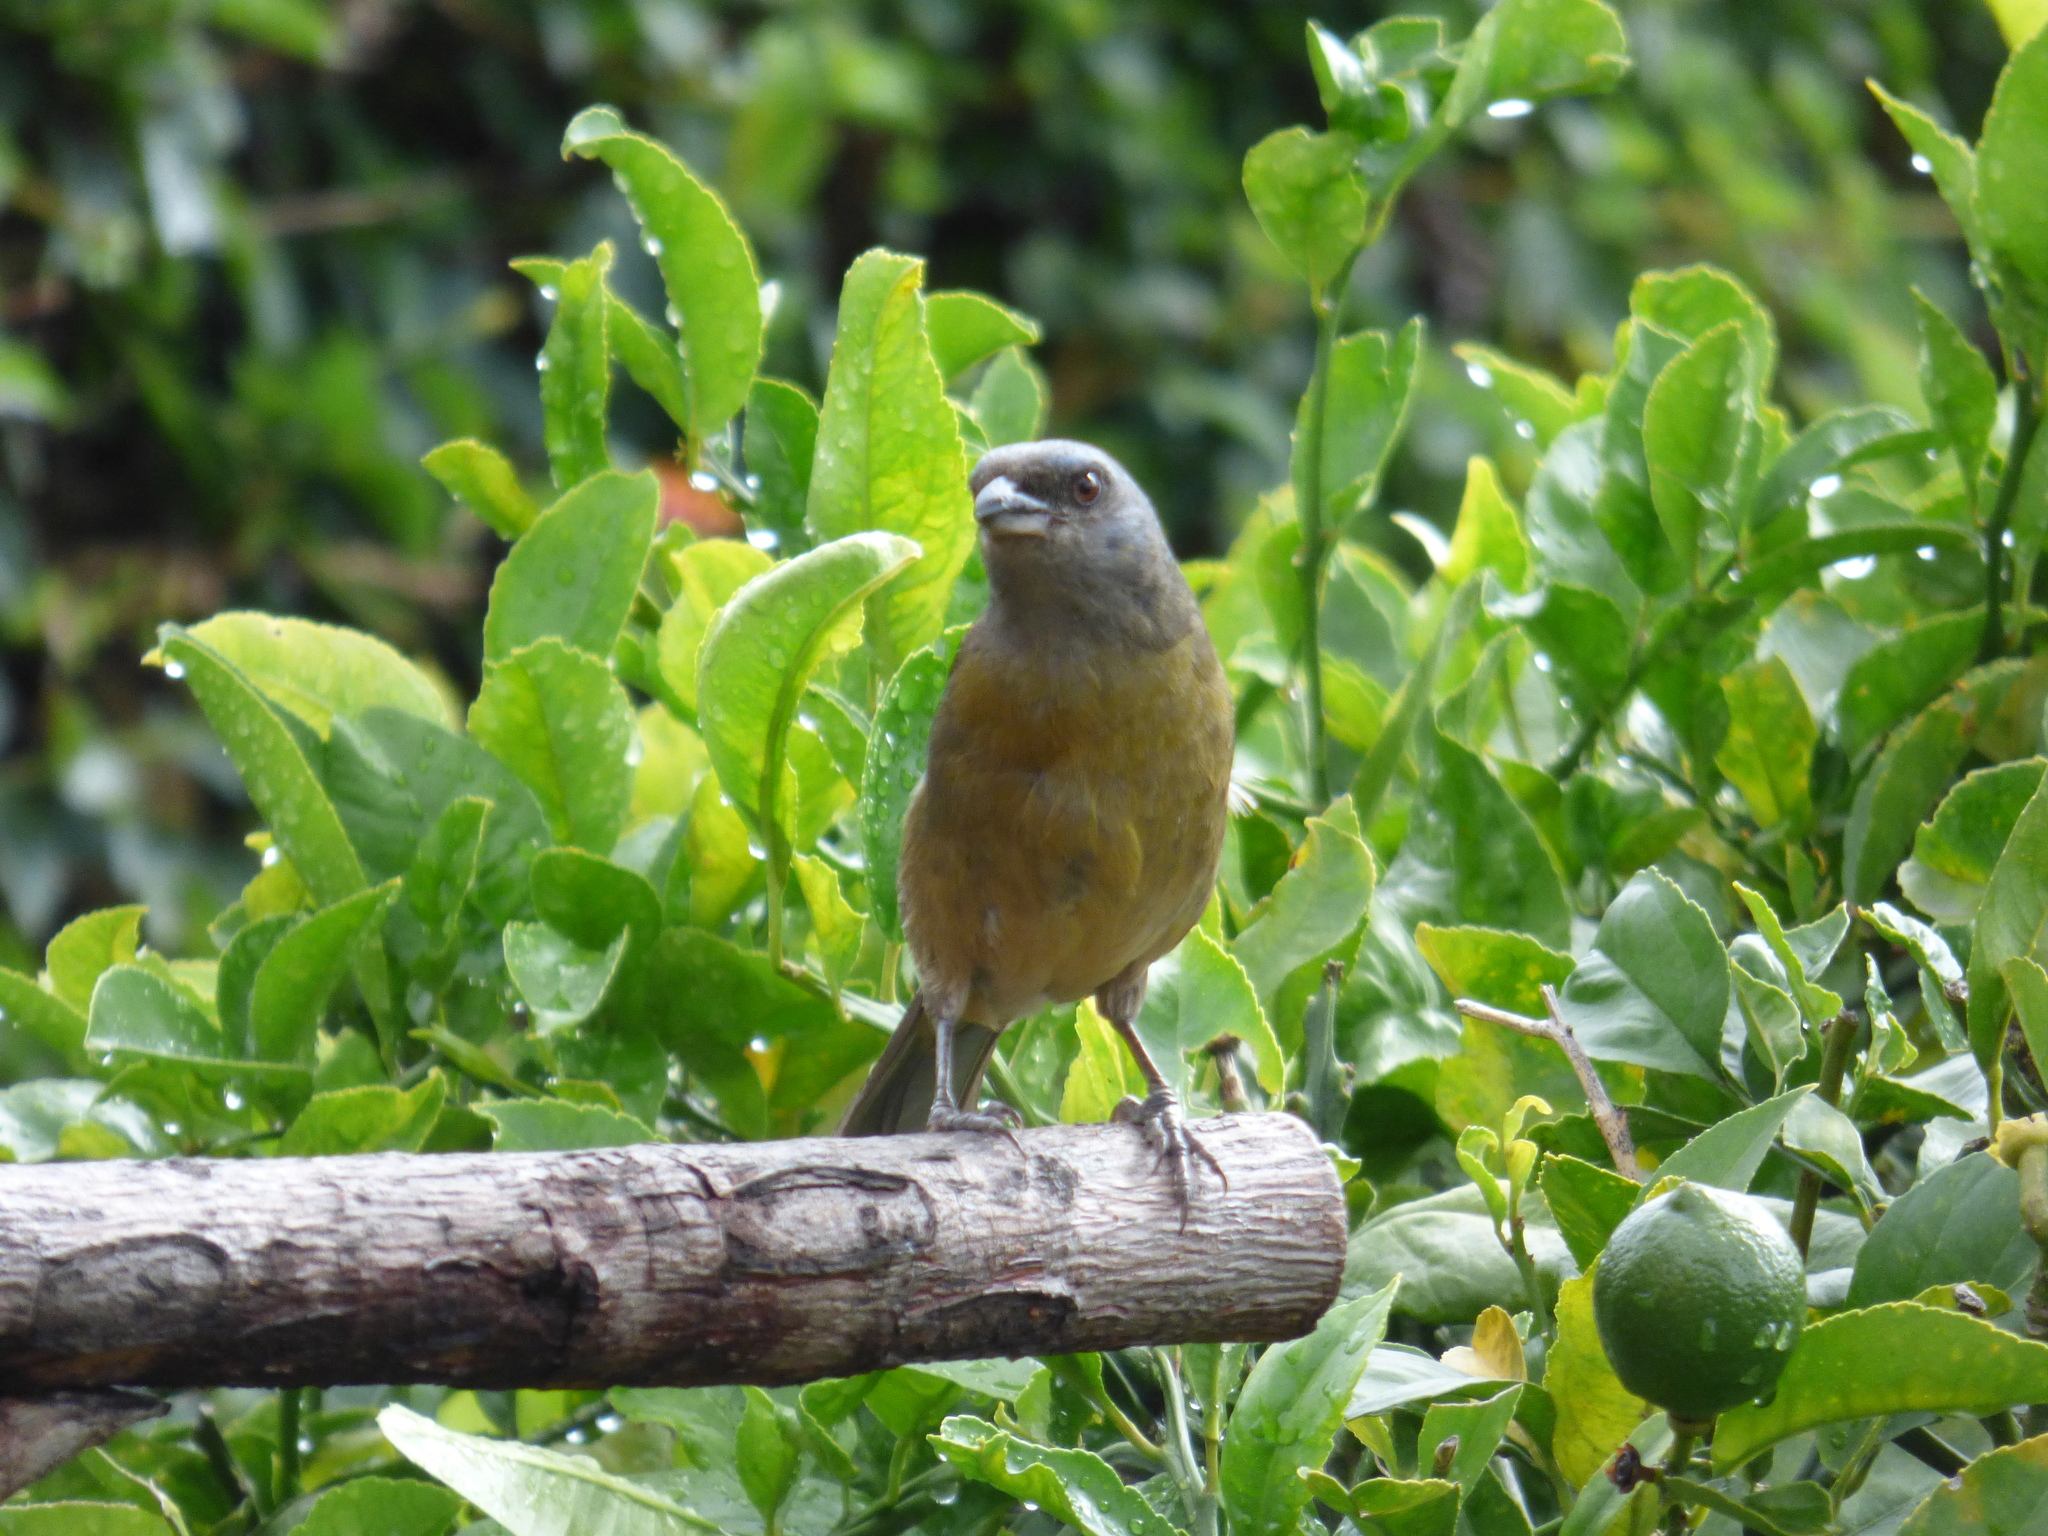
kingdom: Animalia
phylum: Chordata
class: Aves
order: Passeriformes
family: Thraupidae
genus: Rauenia
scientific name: Rauenia bonariensis
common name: Blue-and-yellow tanager
